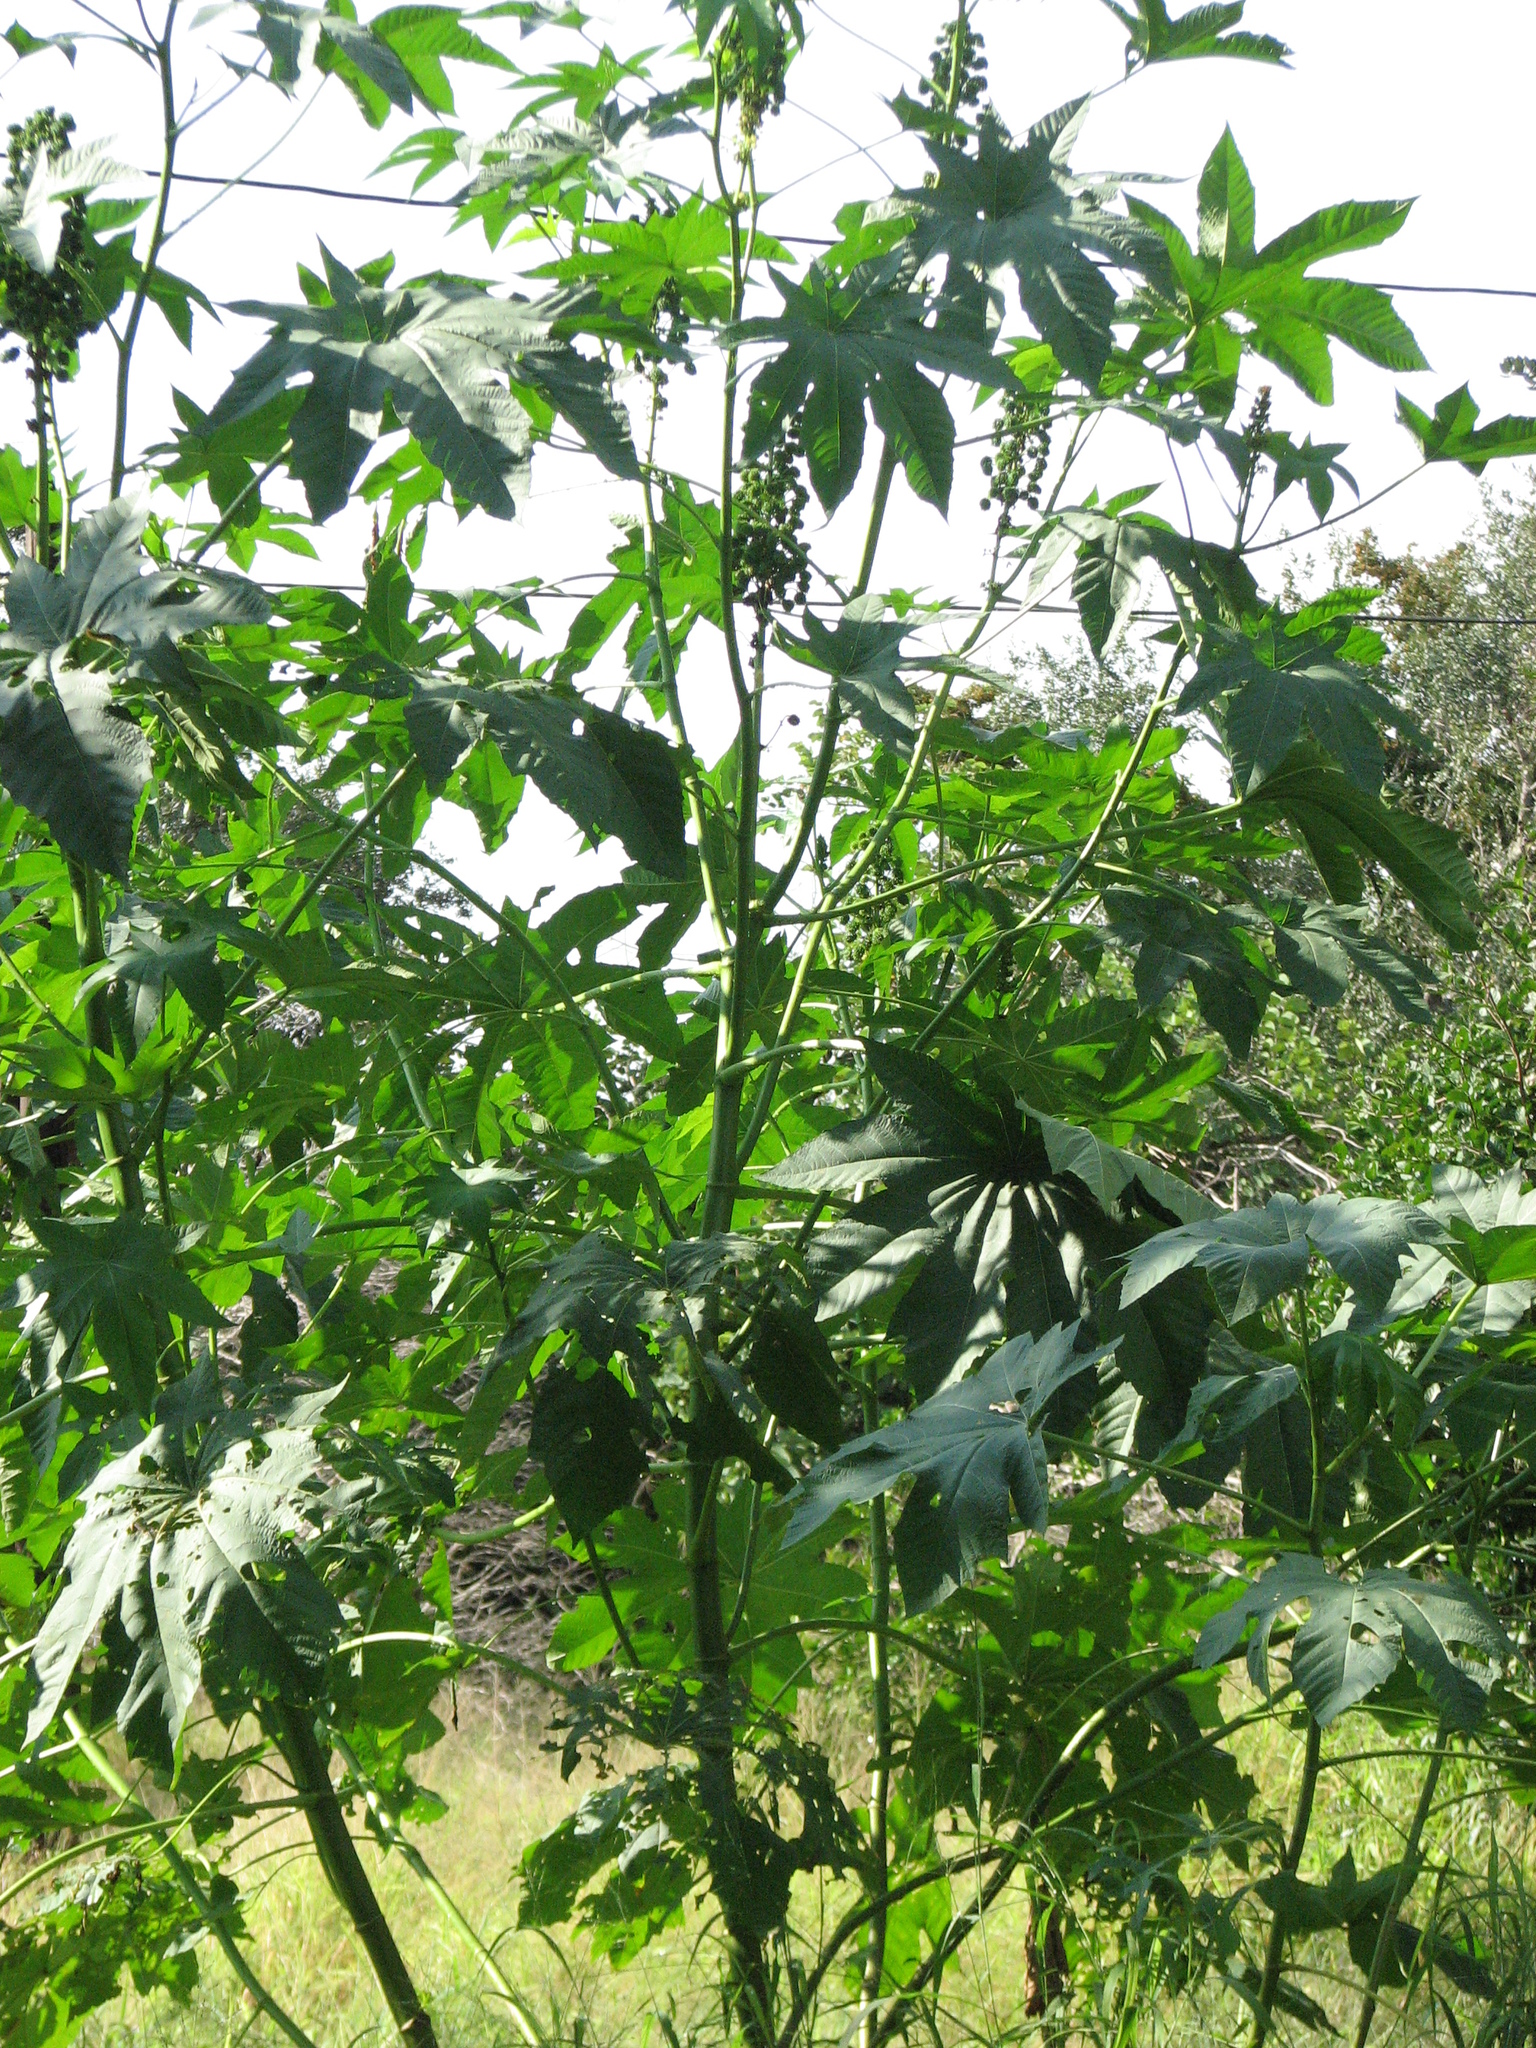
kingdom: Plantae
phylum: Tracheophyta
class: Magnoliopsida
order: Malpighiales
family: Euphorbiaceae
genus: Ricinus
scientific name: Ricinus communis
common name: Castor-oil-plant
